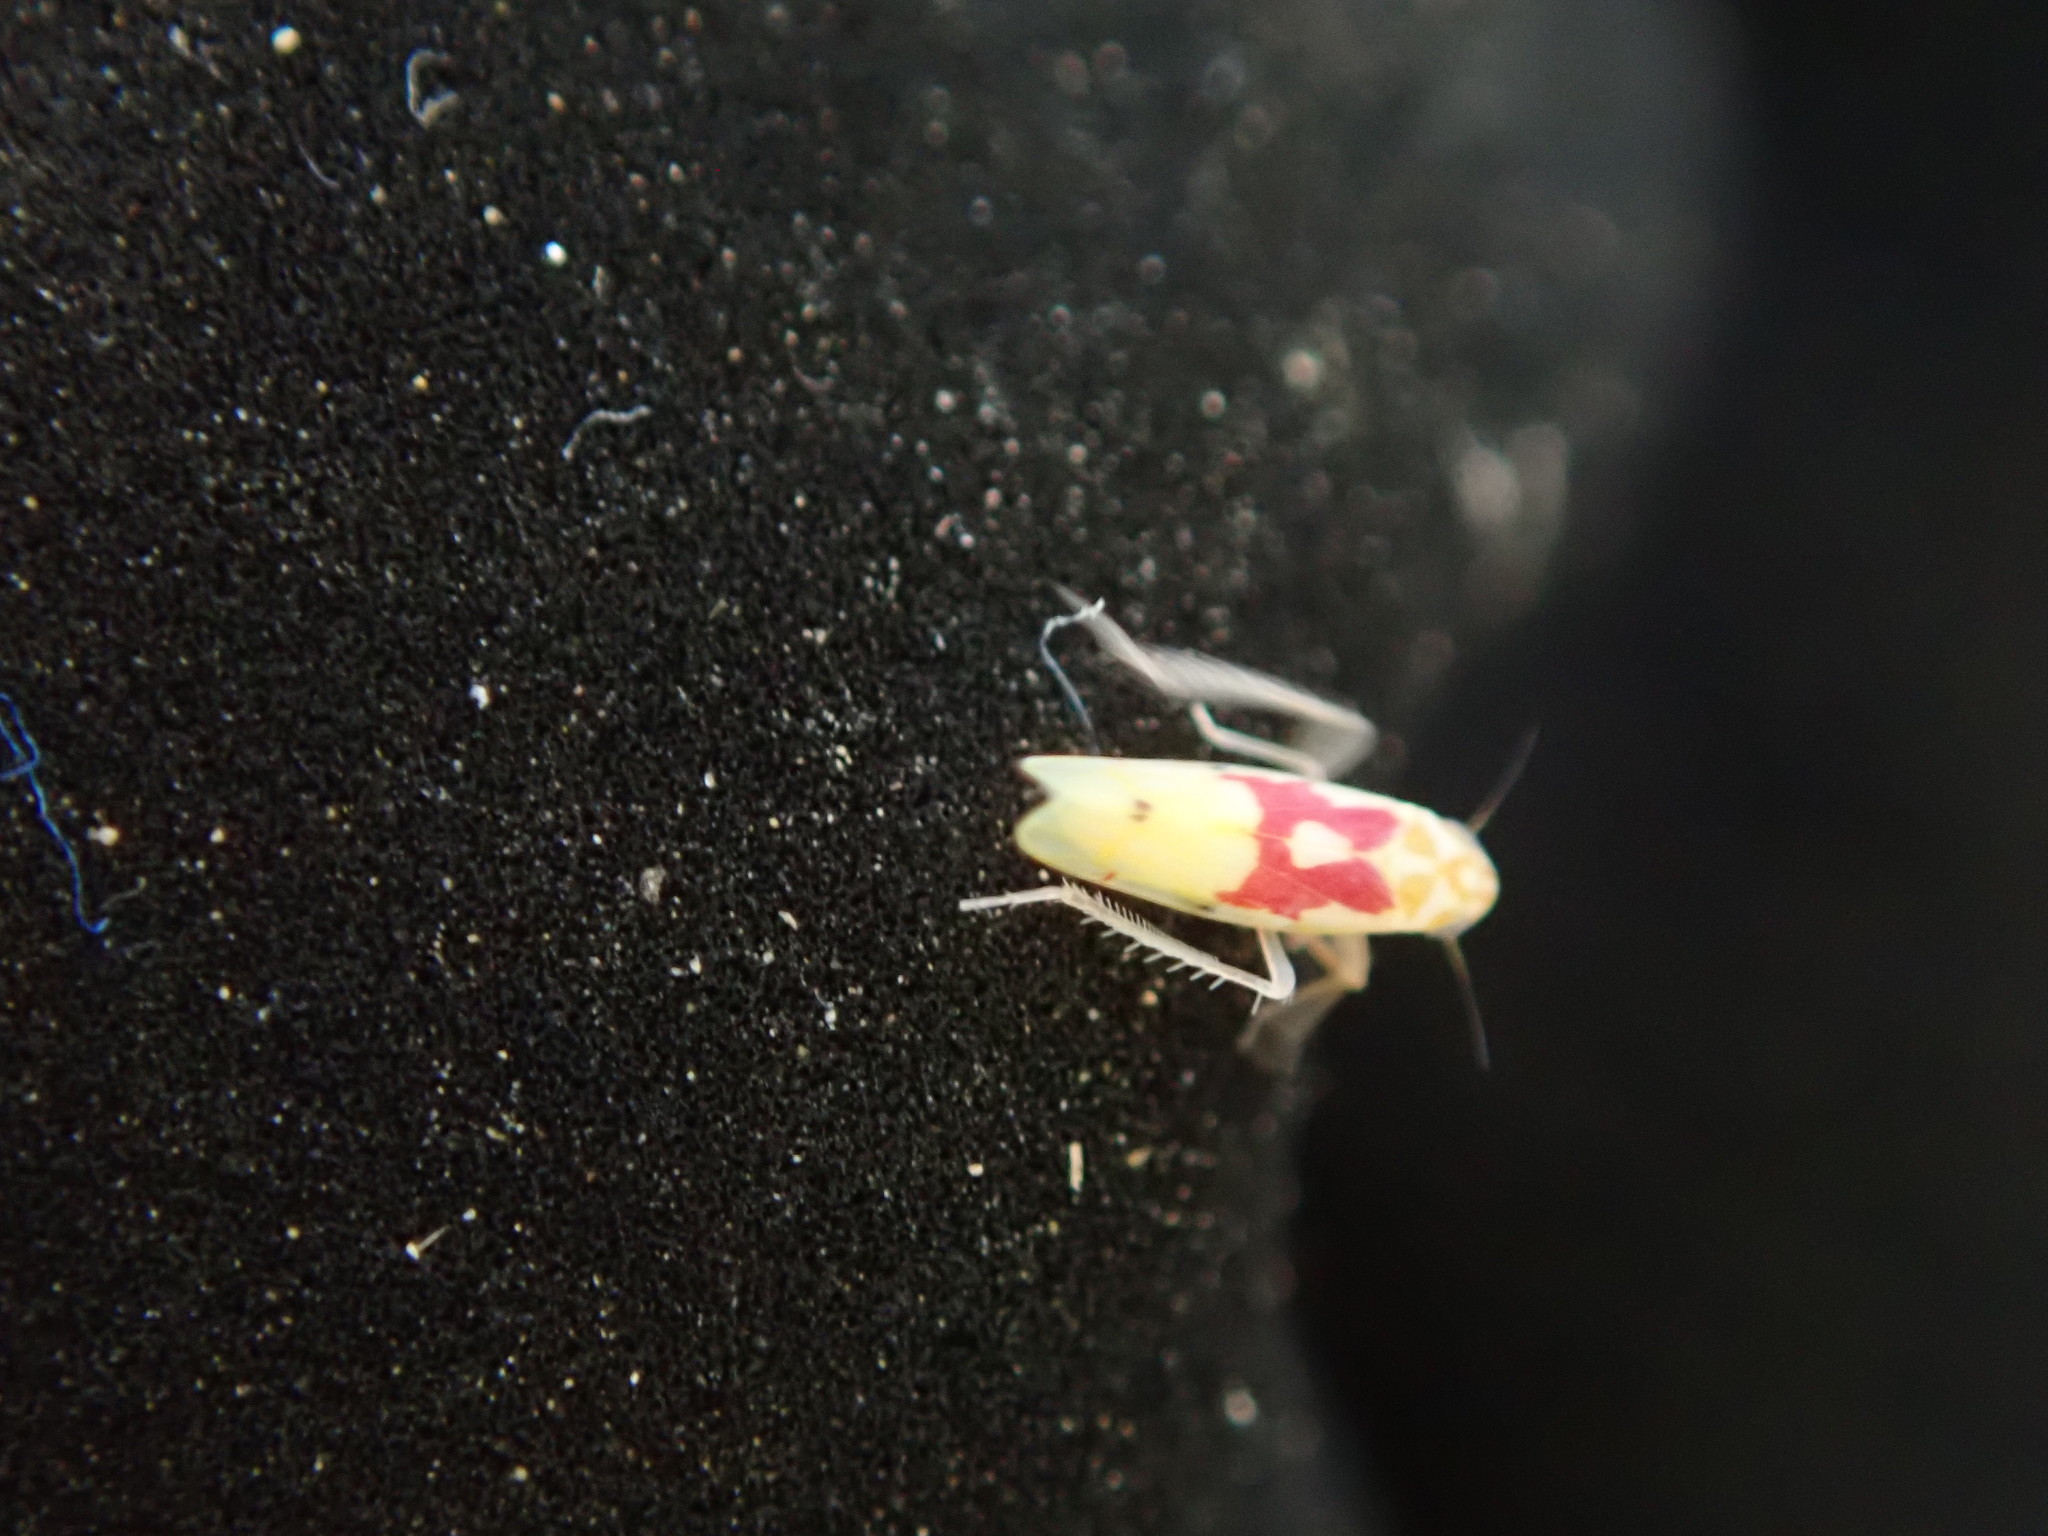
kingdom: Animalia
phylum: Arthropoda
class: Insecta
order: Hemiptera
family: Cicadellidae
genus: Eratoneura
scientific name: Eratoneura fulleri
